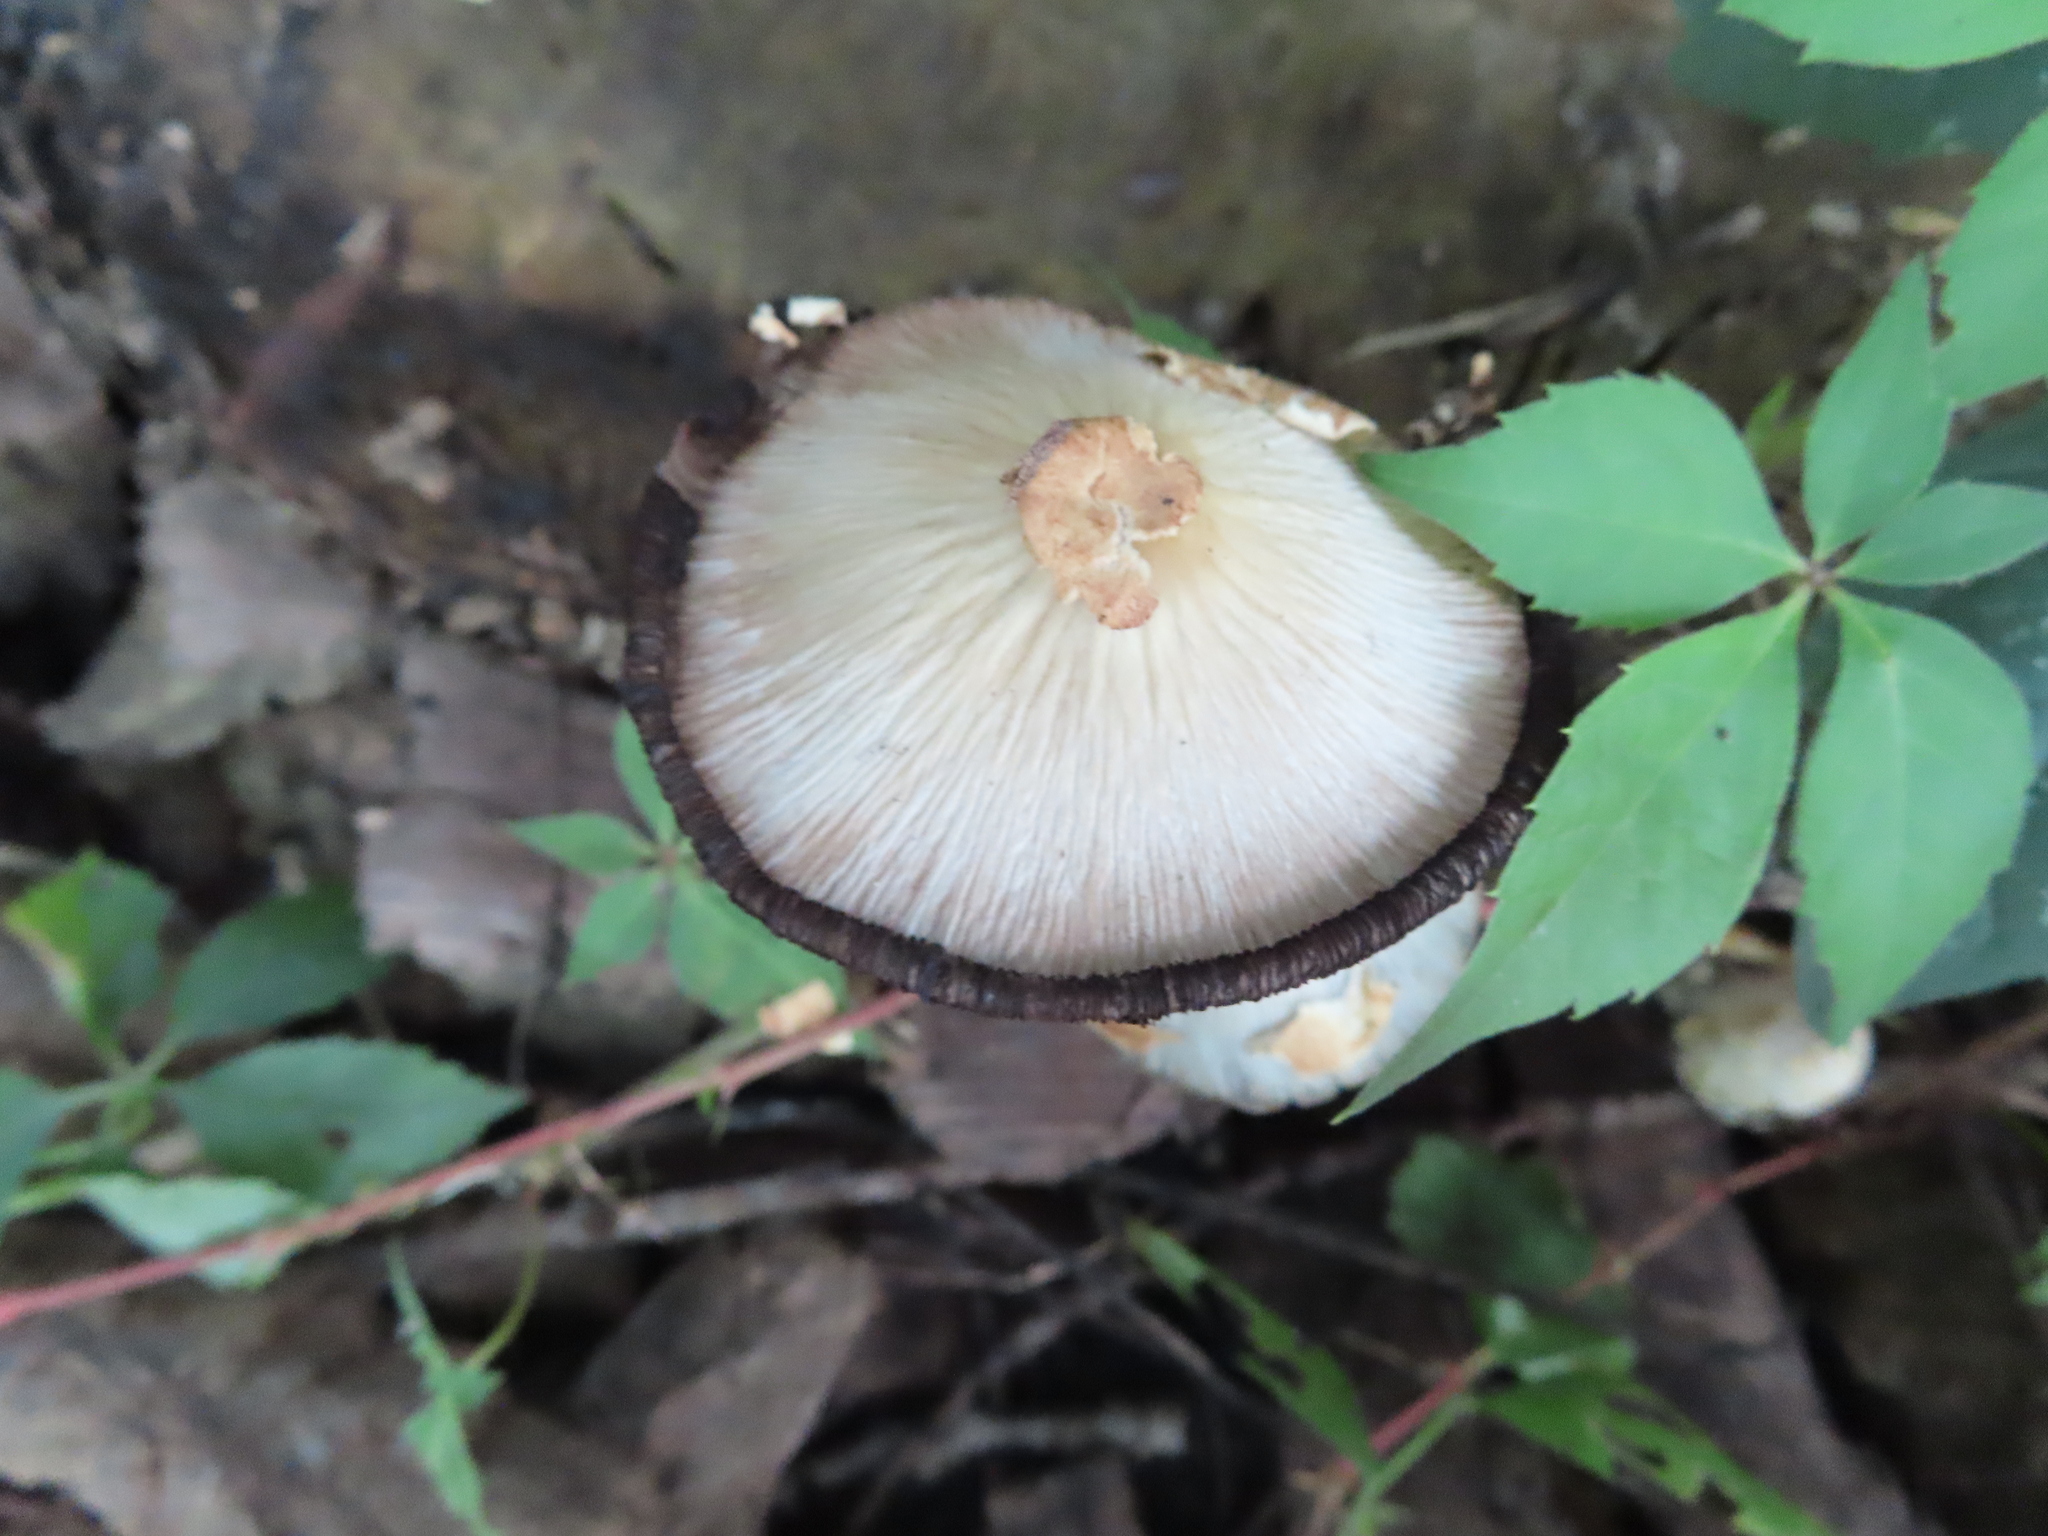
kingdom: Fungi
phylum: Basidiomycota
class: Agaricomycetes
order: Agaricales
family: Psathyrellaceae
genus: Coprinopsis
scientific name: Coprinopsis variegata
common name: Scaly ink cap
